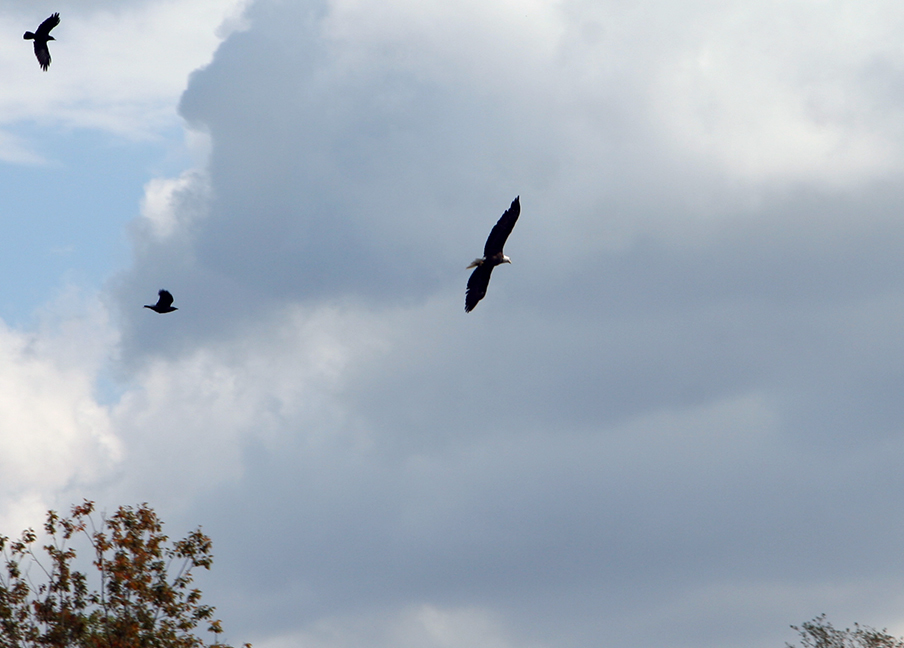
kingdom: Animalia
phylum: Chordata
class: Aves
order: Accipitriformes
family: Accipitridae
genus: Haliaeetus
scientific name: Haliaeetus leucocephalus
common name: Bald eagle
